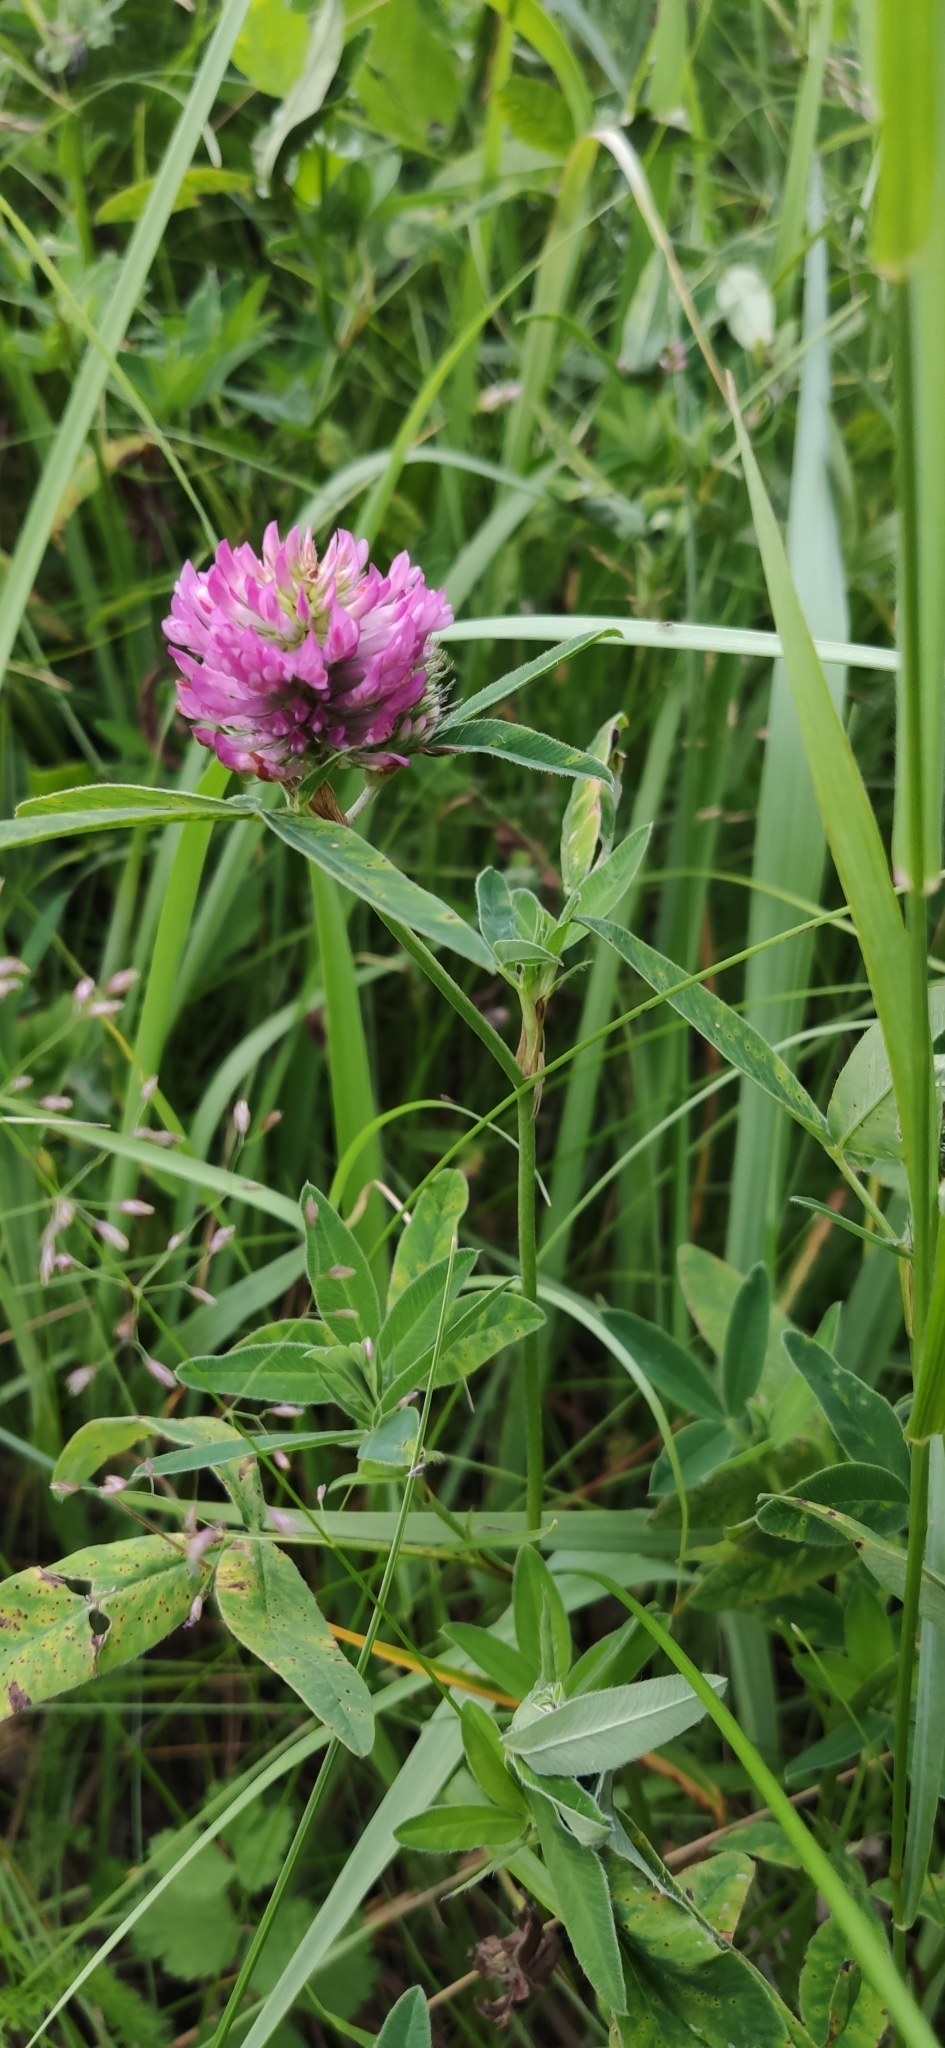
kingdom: Plantae
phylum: Tracheophyta
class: Magnoliopsida
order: Fabales
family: Fabaceae
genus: Trifolium
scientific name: Trifolium medium
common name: Zigzag clover
